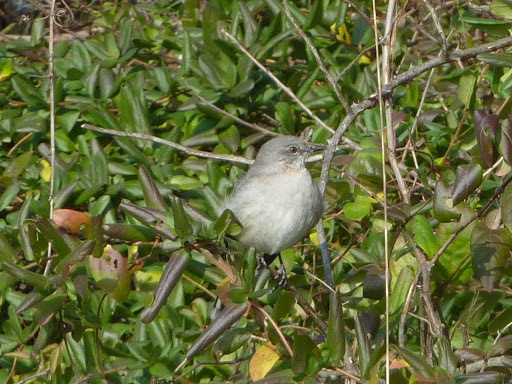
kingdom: Animalia
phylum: Chordata
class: Aves
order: Passeriformes
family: Mimidae
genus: Mimus
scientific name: Mimus polyglottos
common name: Northern mockingbird
